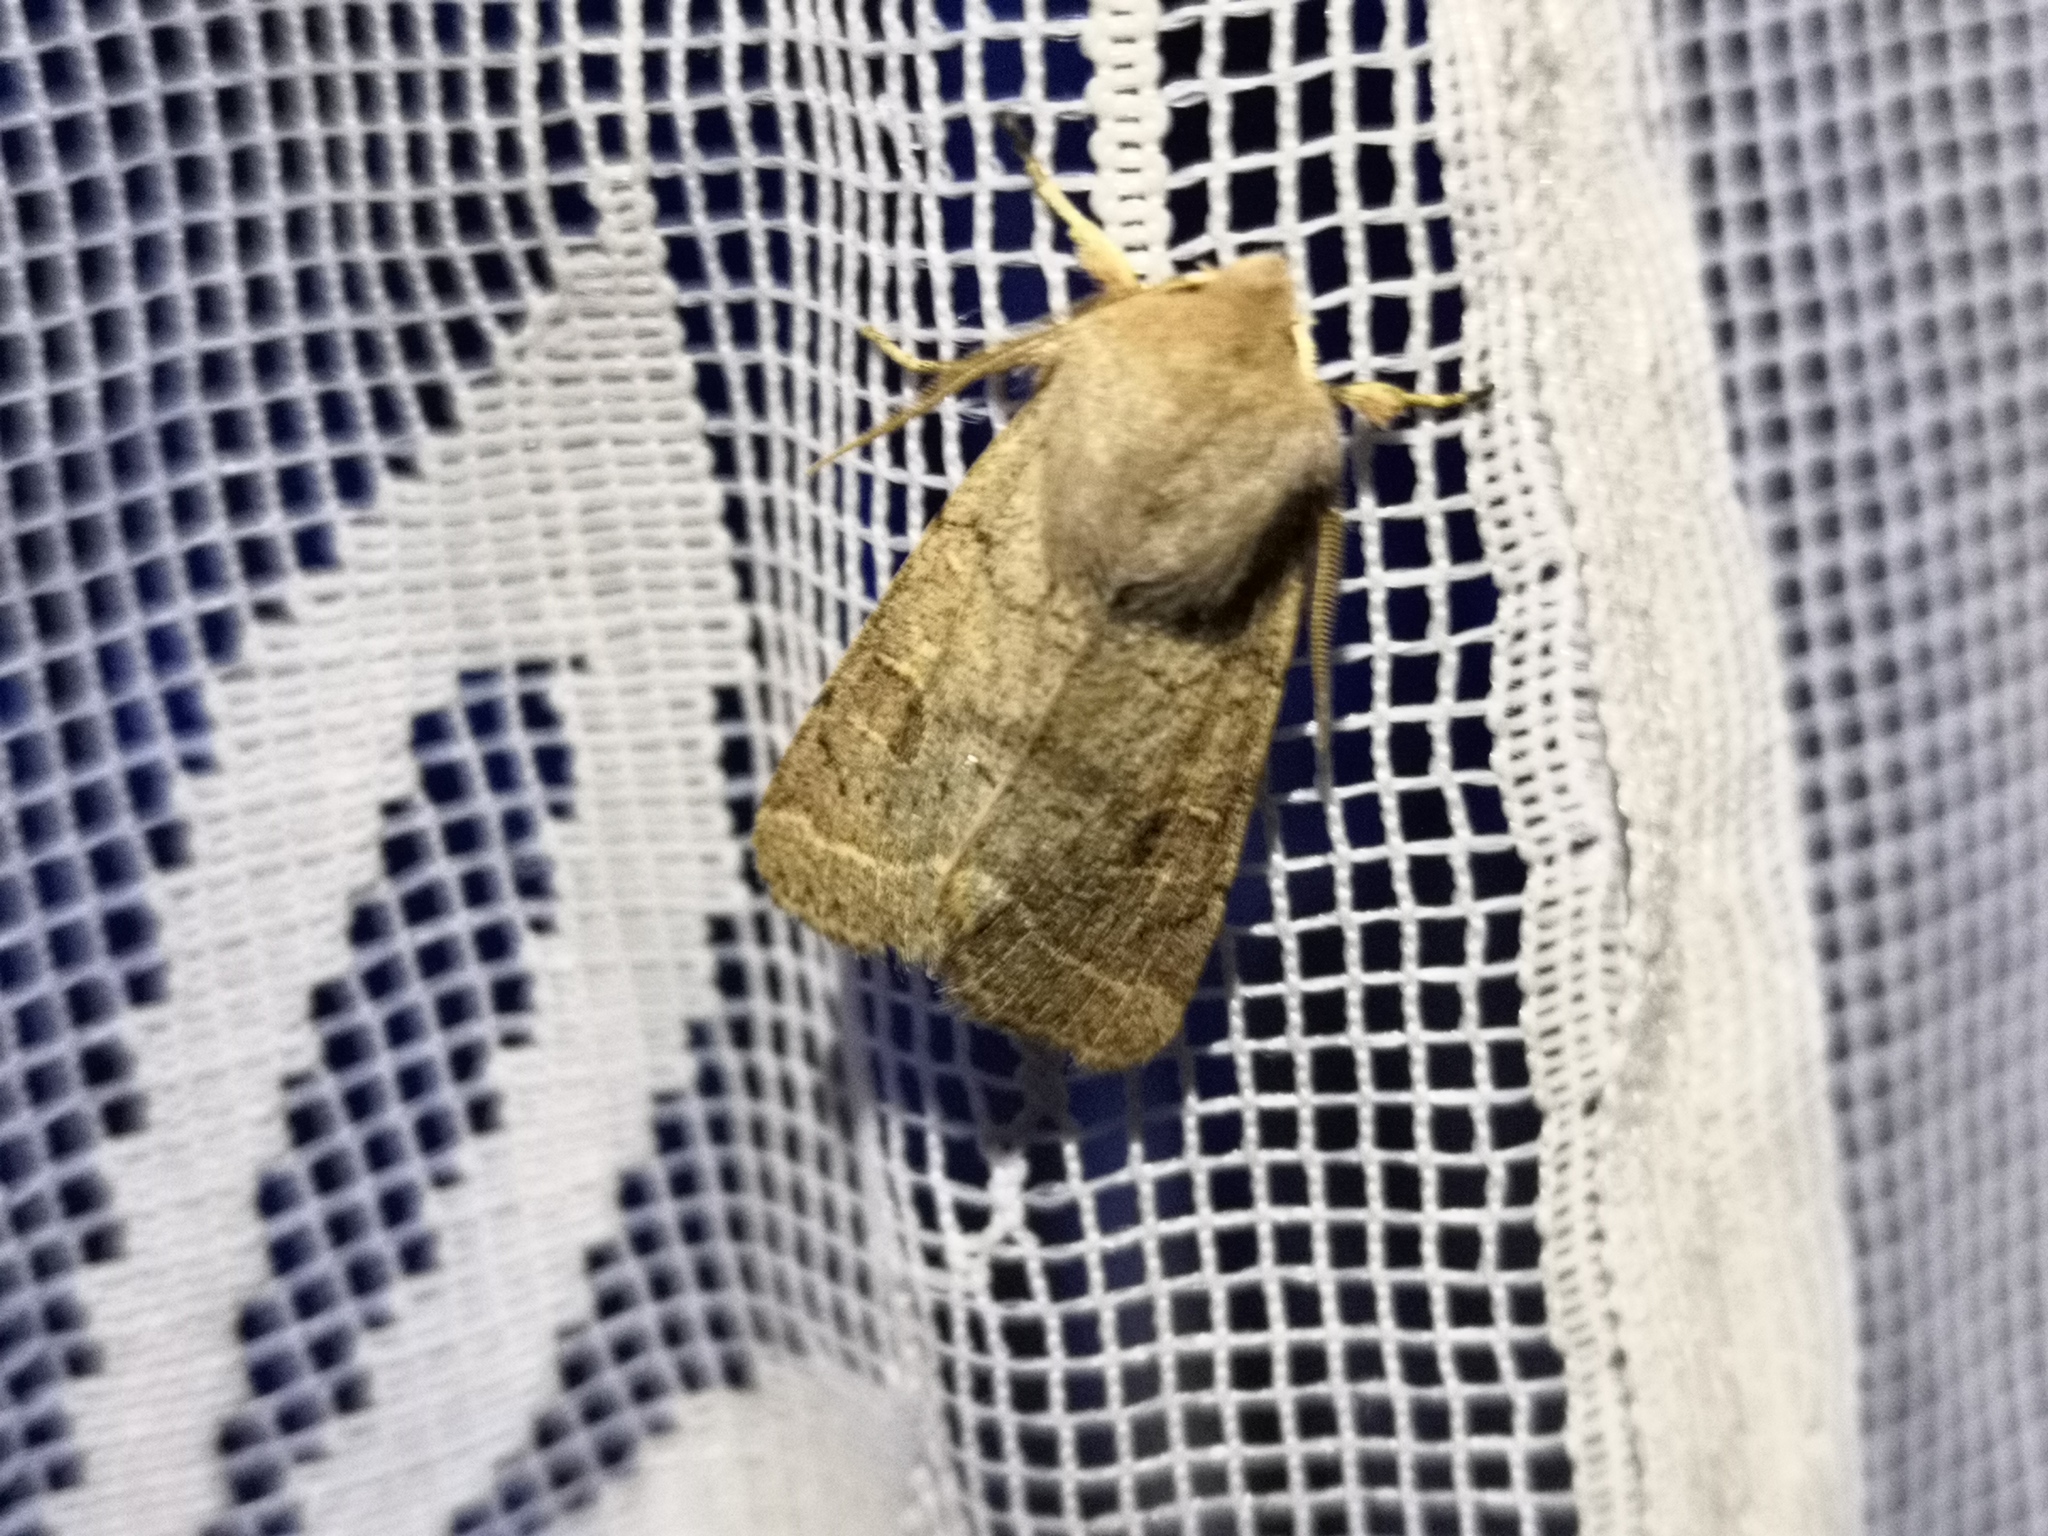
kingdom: Animalia
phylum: Arthropoda
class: Insecta
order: Lepidoptera
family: Noctuidae
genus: Orthosia
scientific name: Orthosia cerasi
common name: Common quaker
